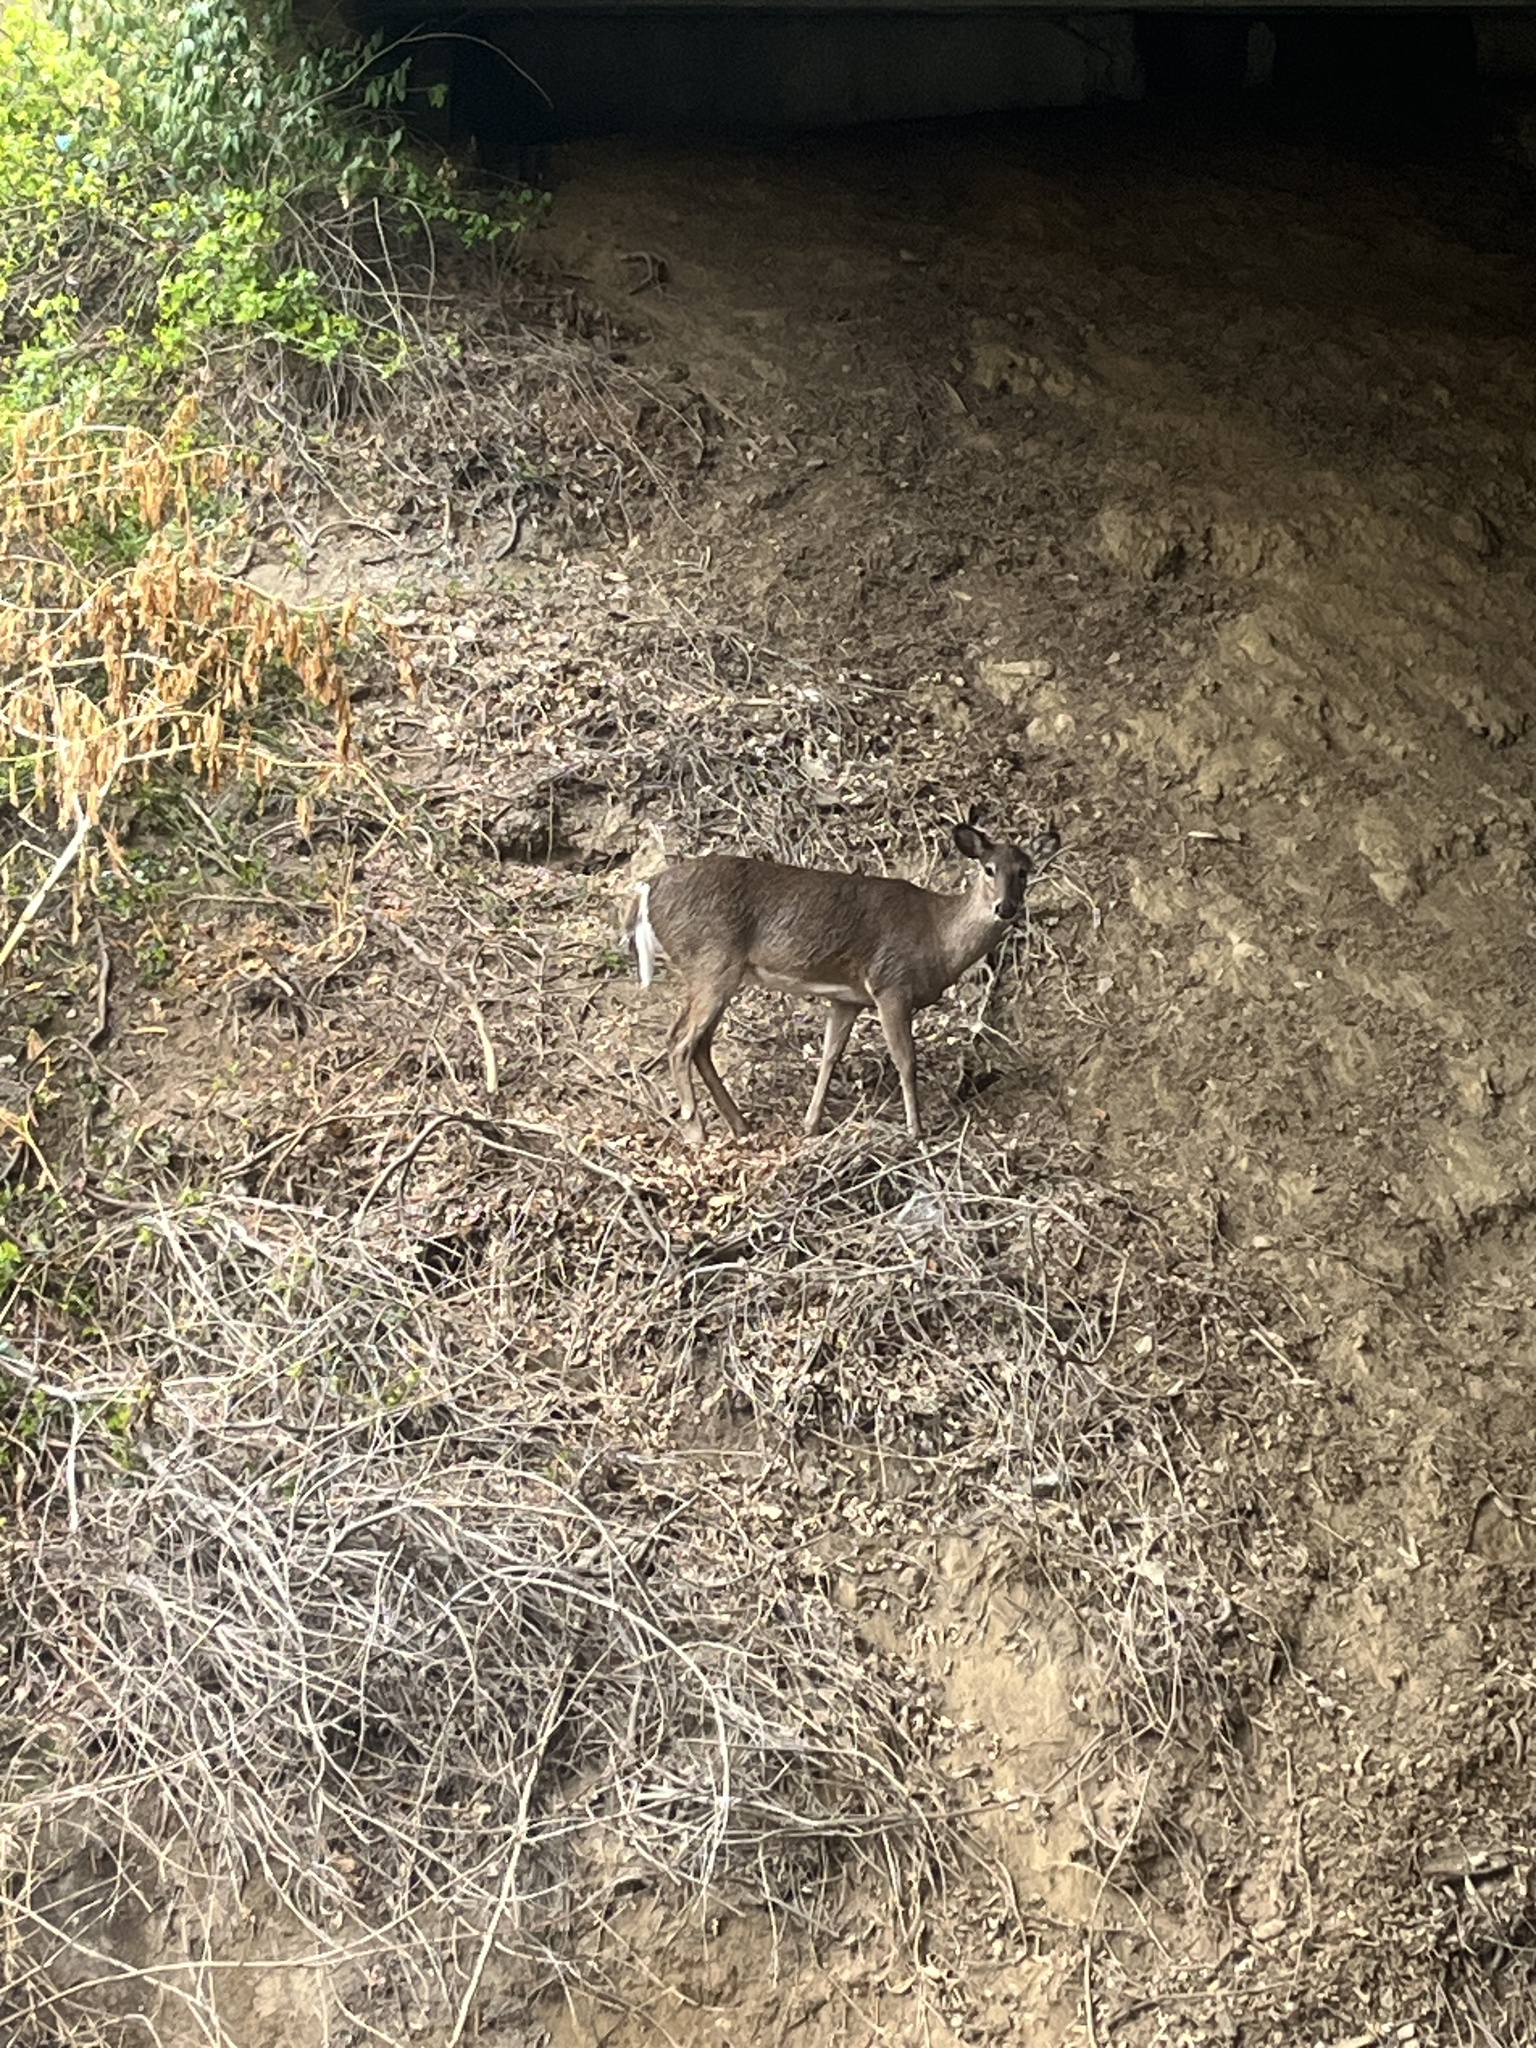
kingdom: Animalia
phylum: Chordata
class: Mammalia
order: Artiodactyla
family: Cervidae
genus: Odocoileus
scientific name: Odocoileus virginianus
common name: White-tailed deer
